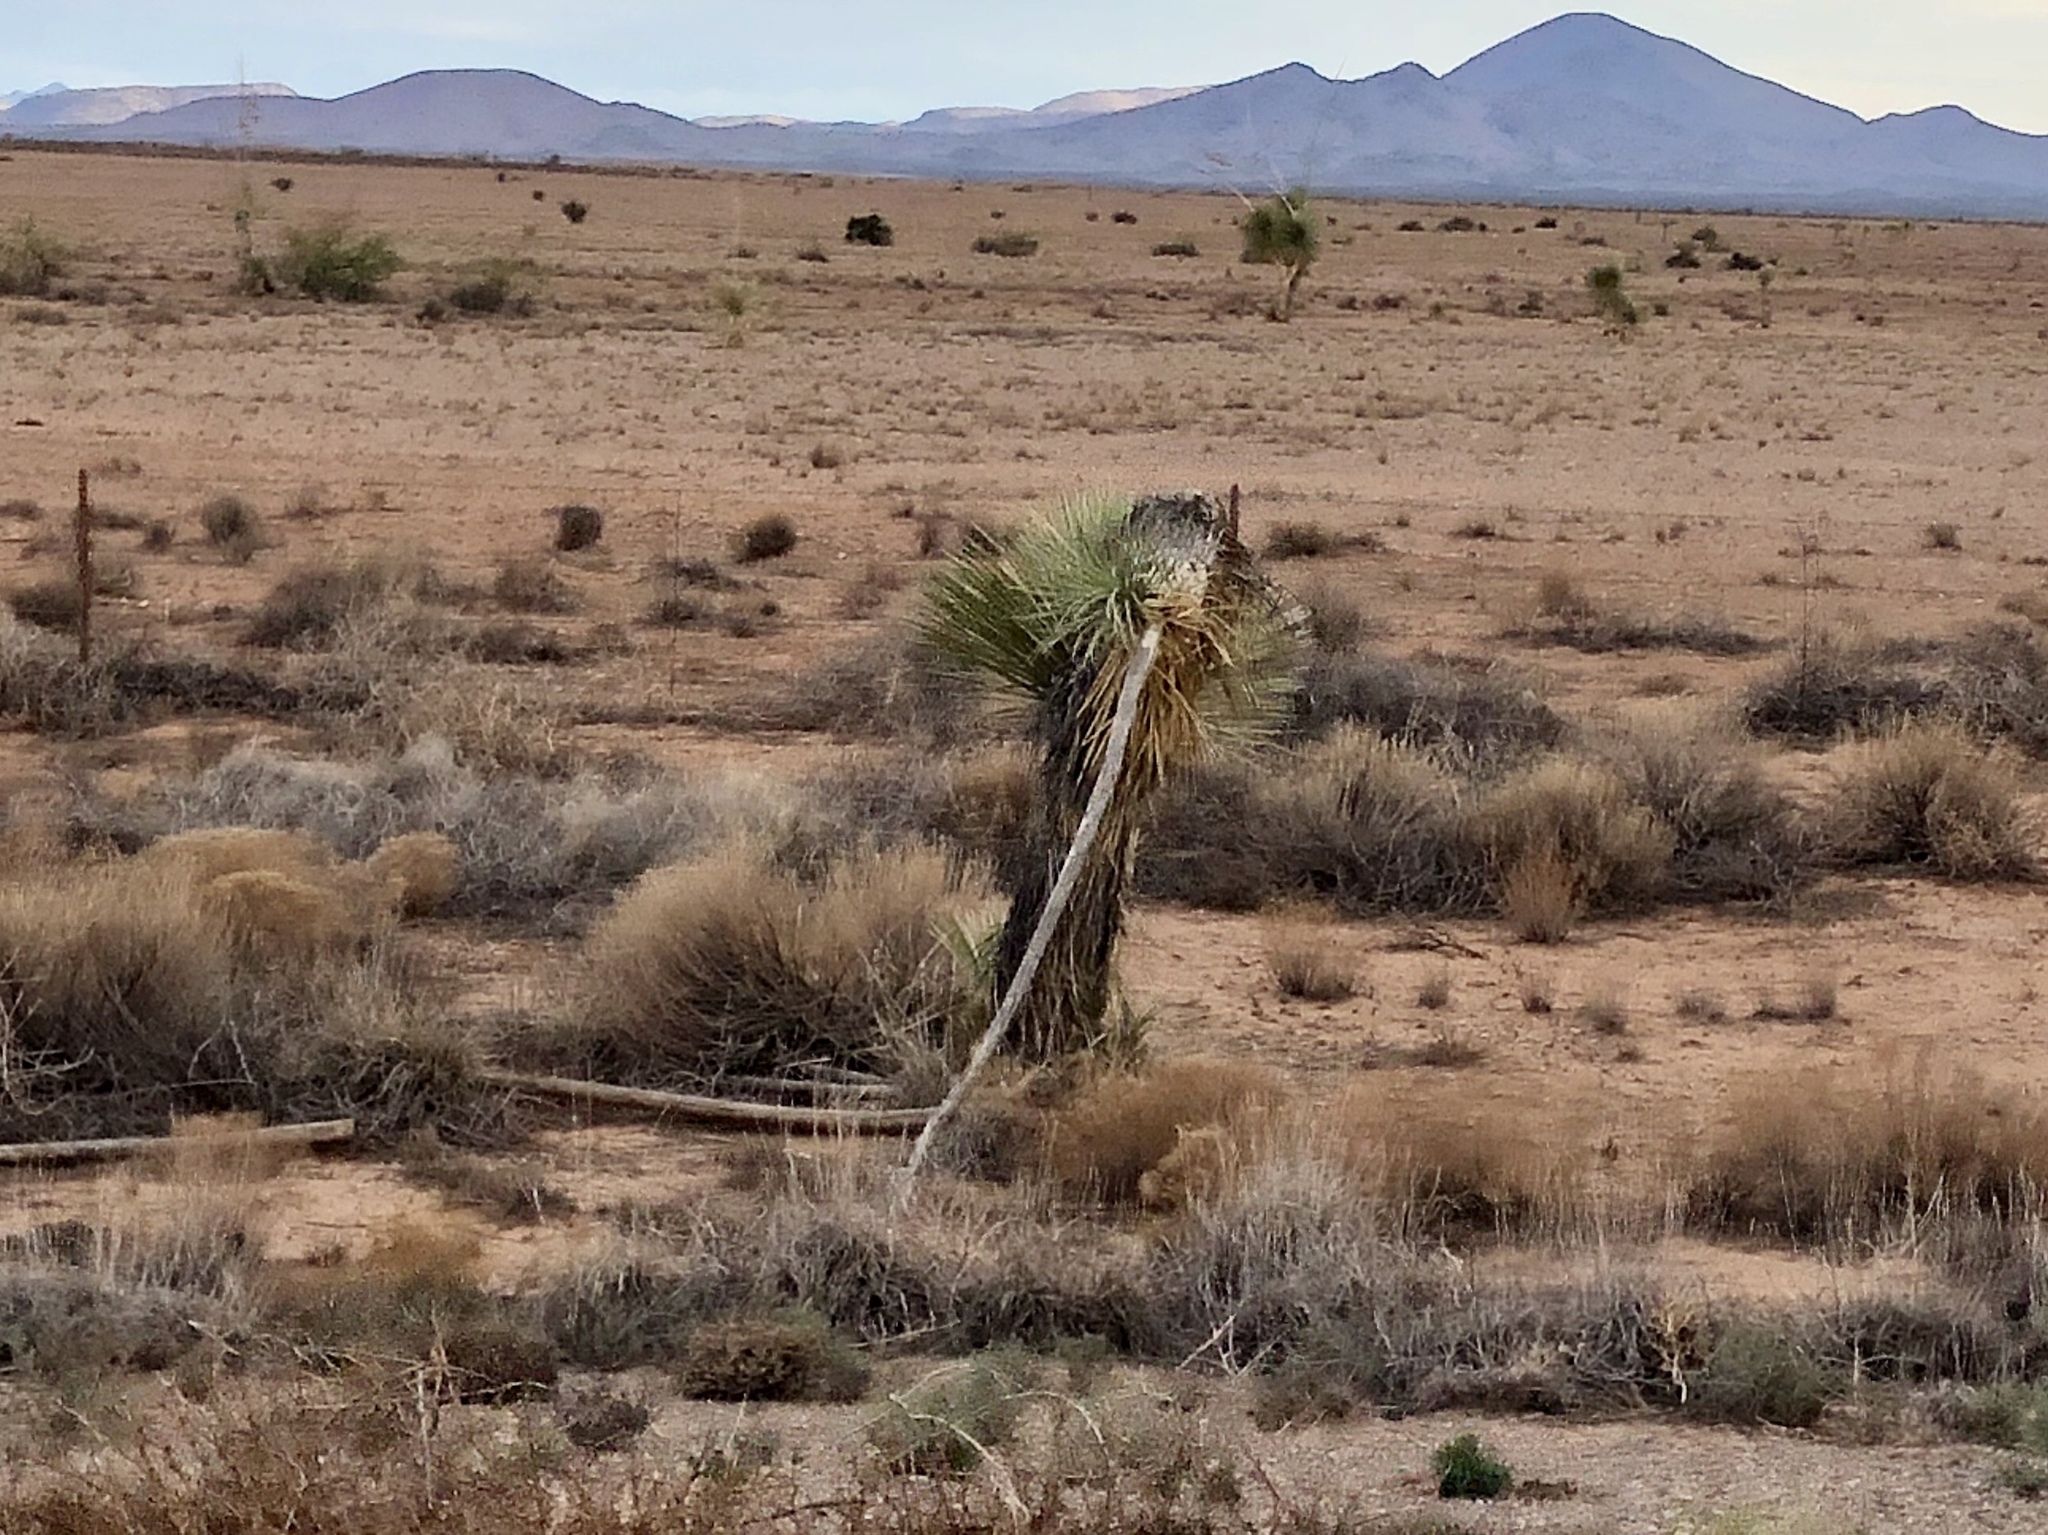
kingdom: Plantae
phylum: Tracheophyta
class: Liliopsida
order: Asparagales
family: Asparagaceae
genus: Yucca
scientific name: Yucca elata
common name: Palmella
